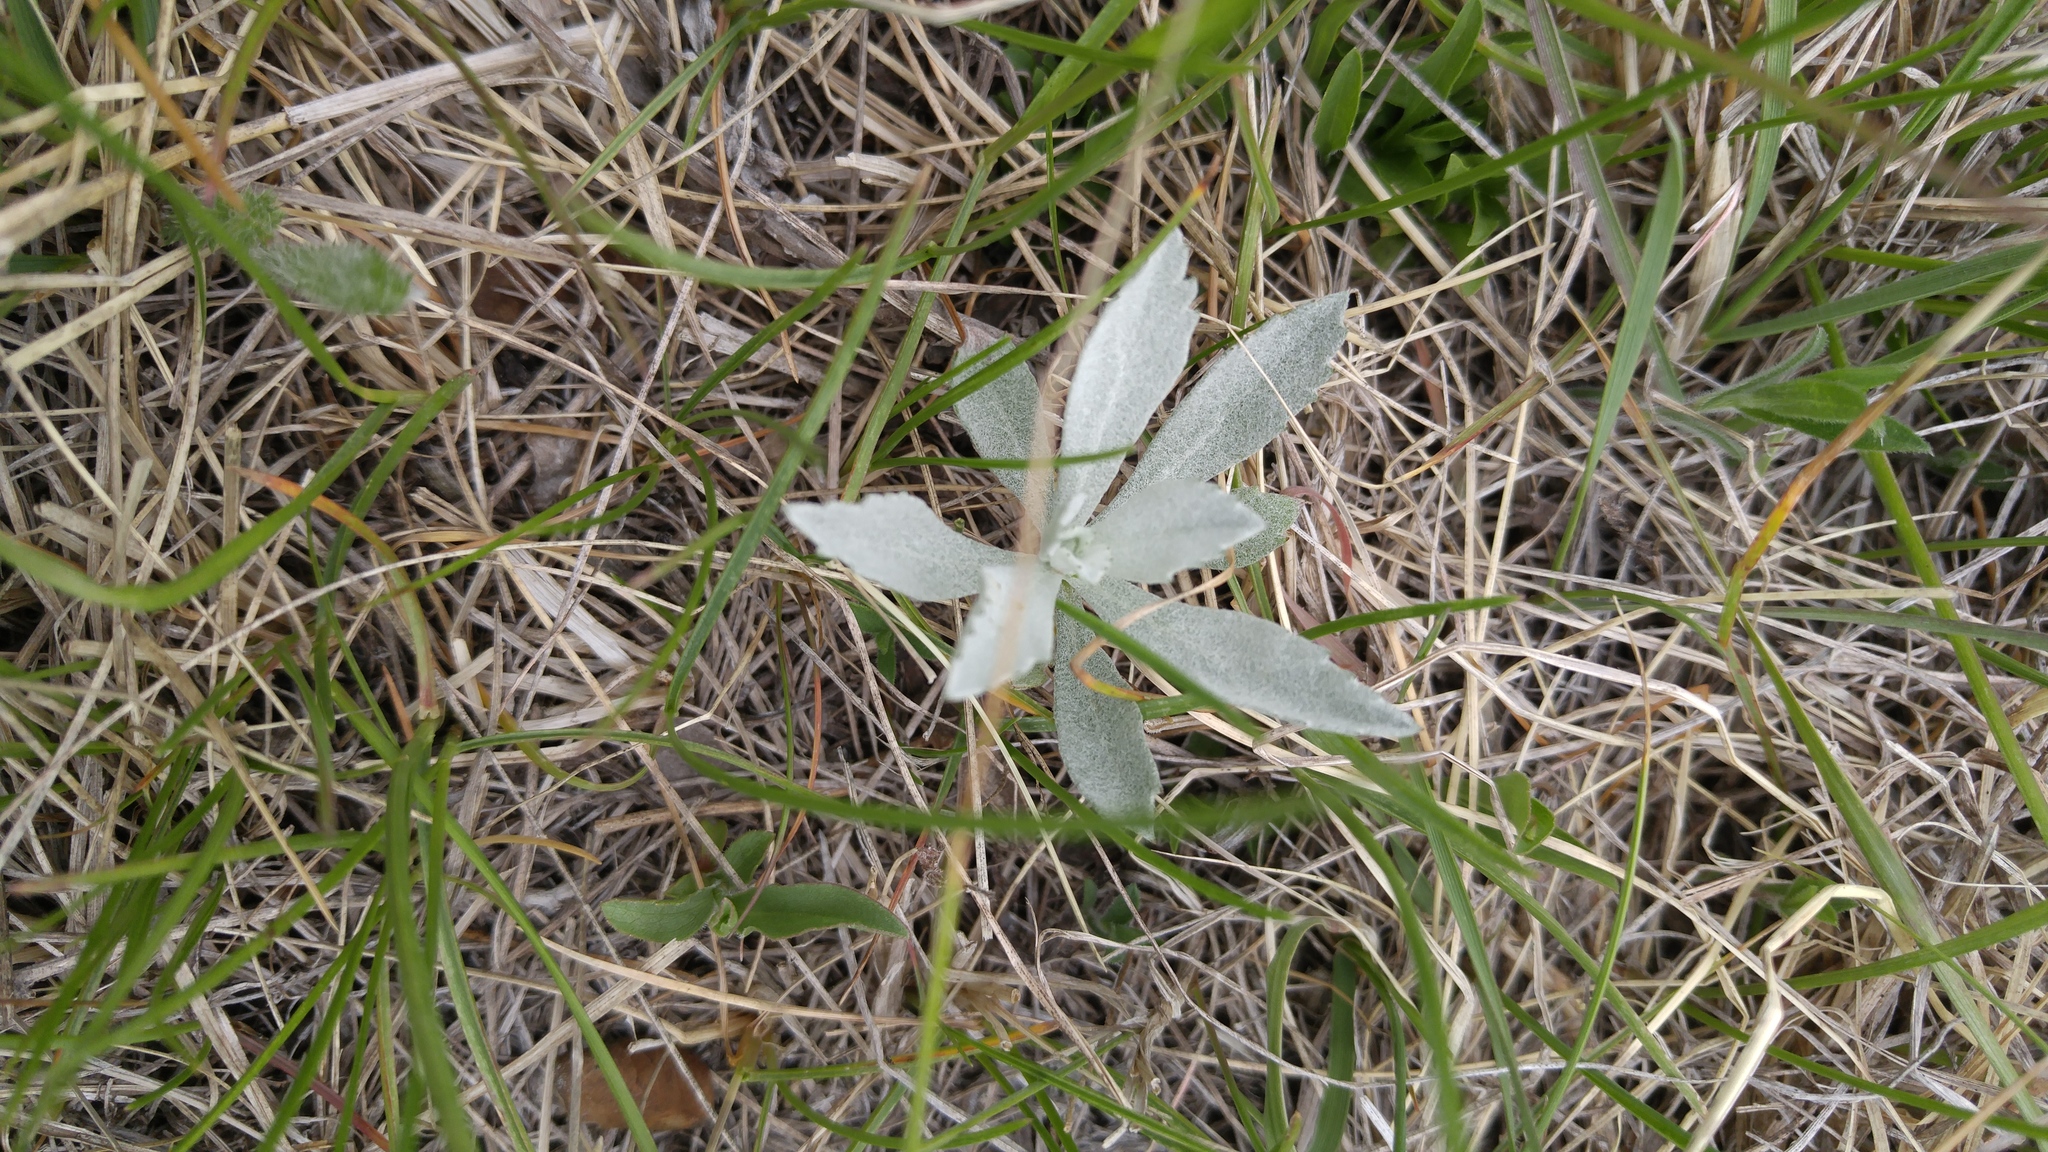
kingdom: Plantae
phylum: Tracheophyta
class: Magnoliopsida
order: Asterales
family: Asteraceae
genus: Artemisia
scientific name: Artemisia ludoviciana
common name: Western mugwort
